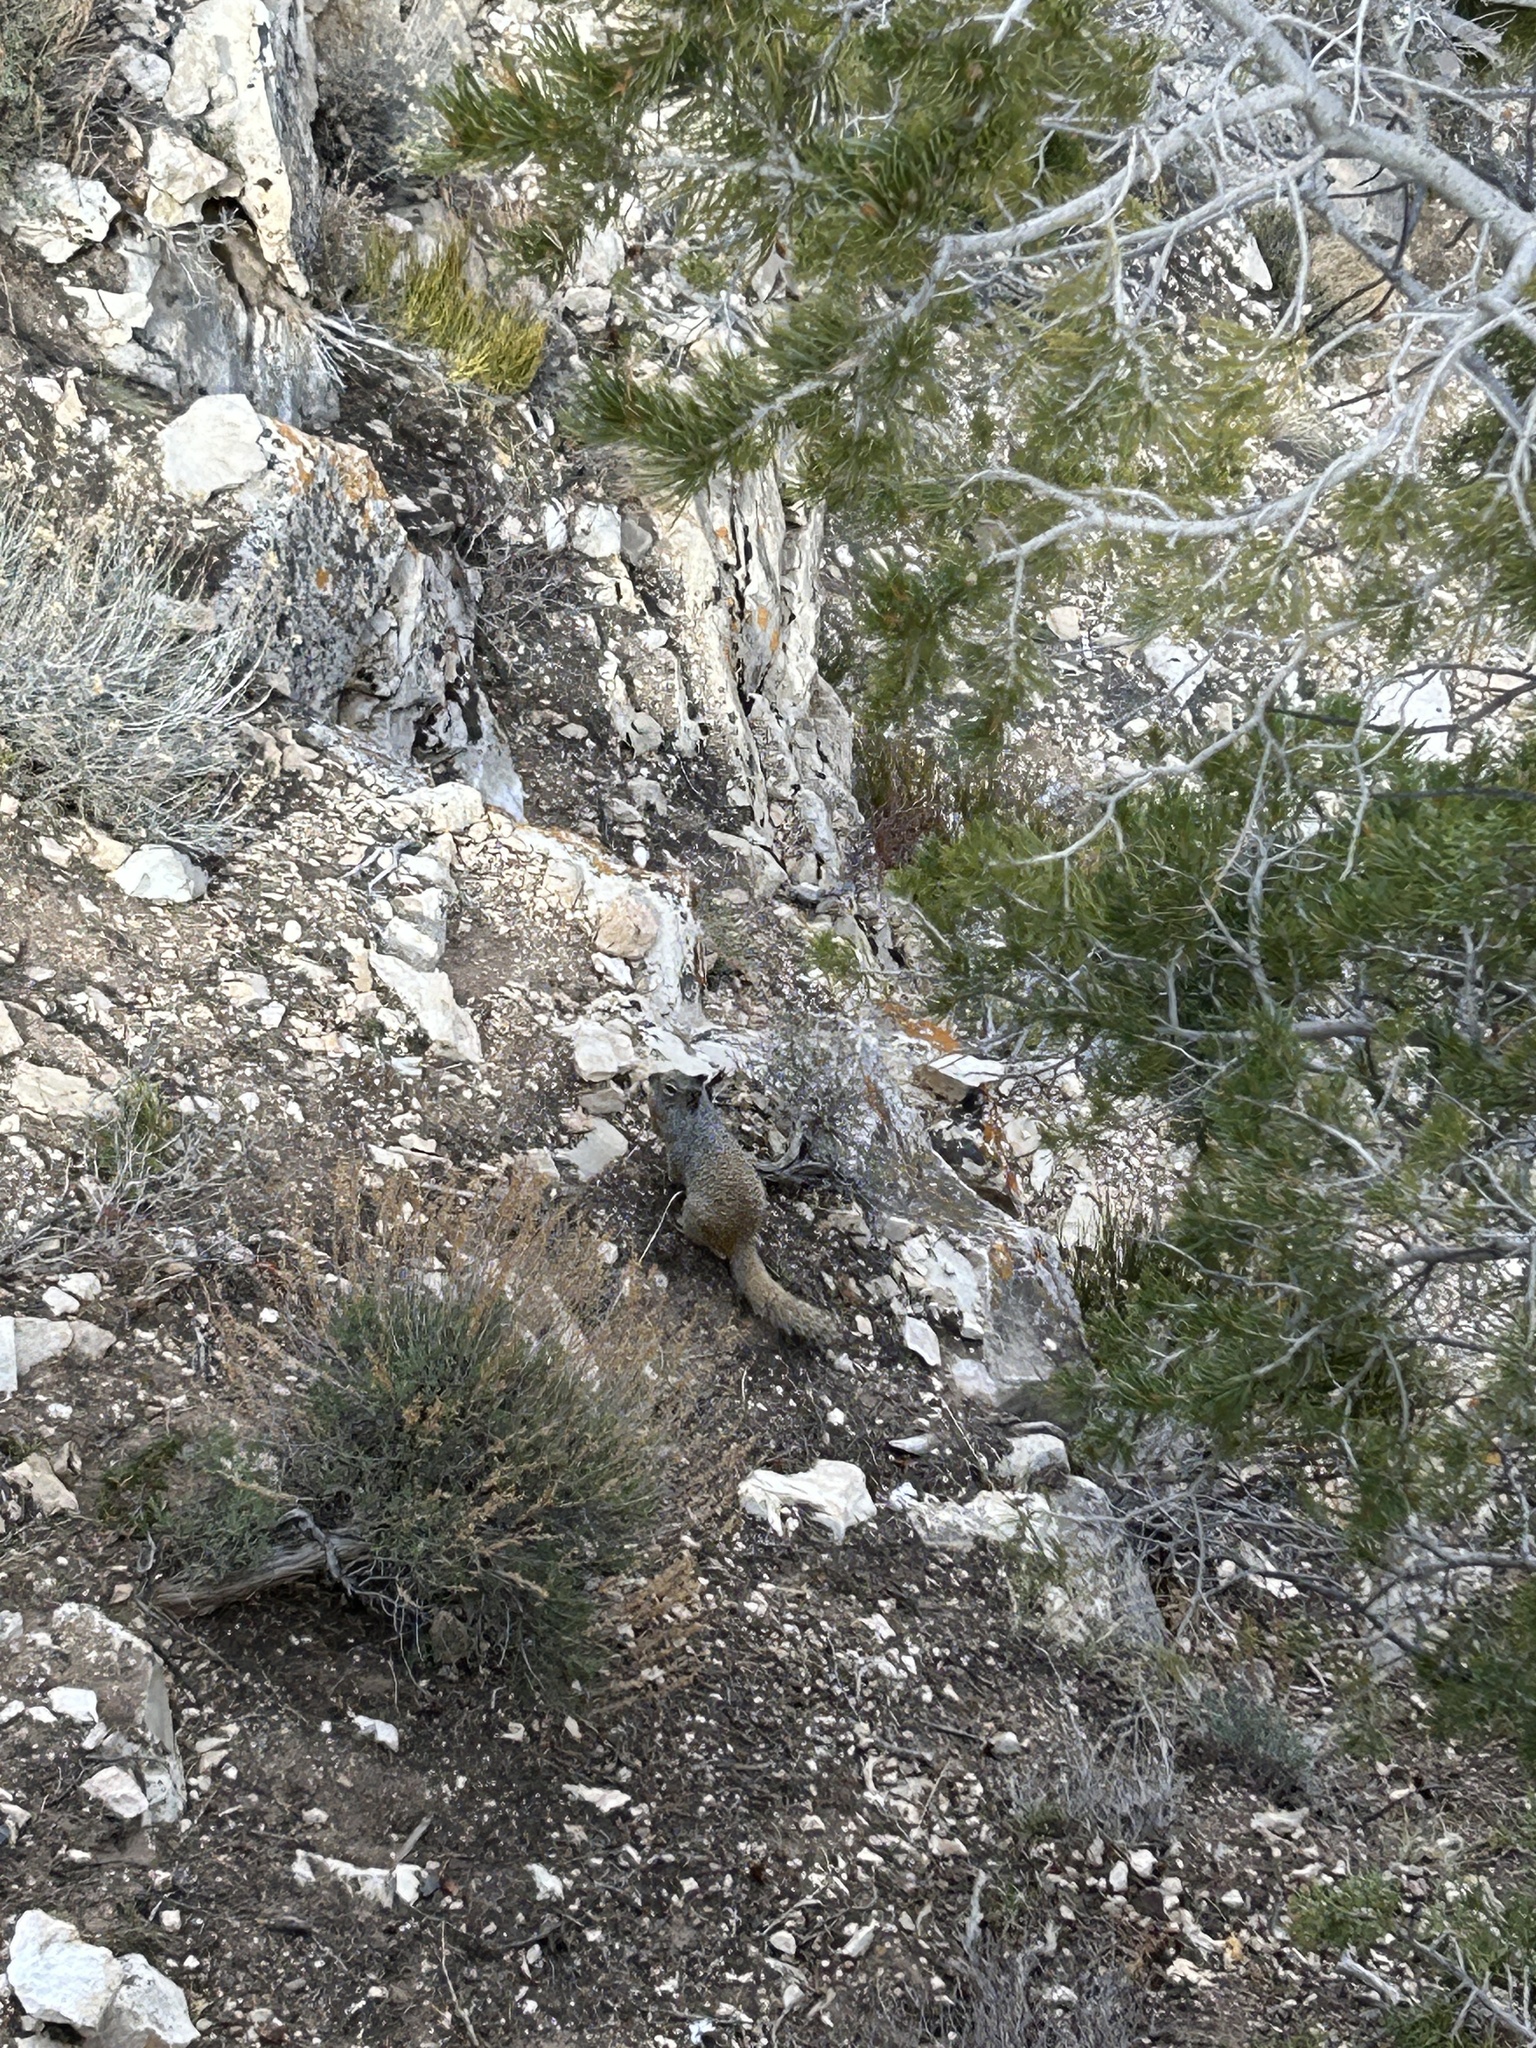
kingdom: Animalia
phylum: Chordata
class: Mammalia
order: Rodentia
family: Sciuridae
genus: Otospermophilus
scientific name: Otospermophilus variegatus
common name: Rock squirrel
